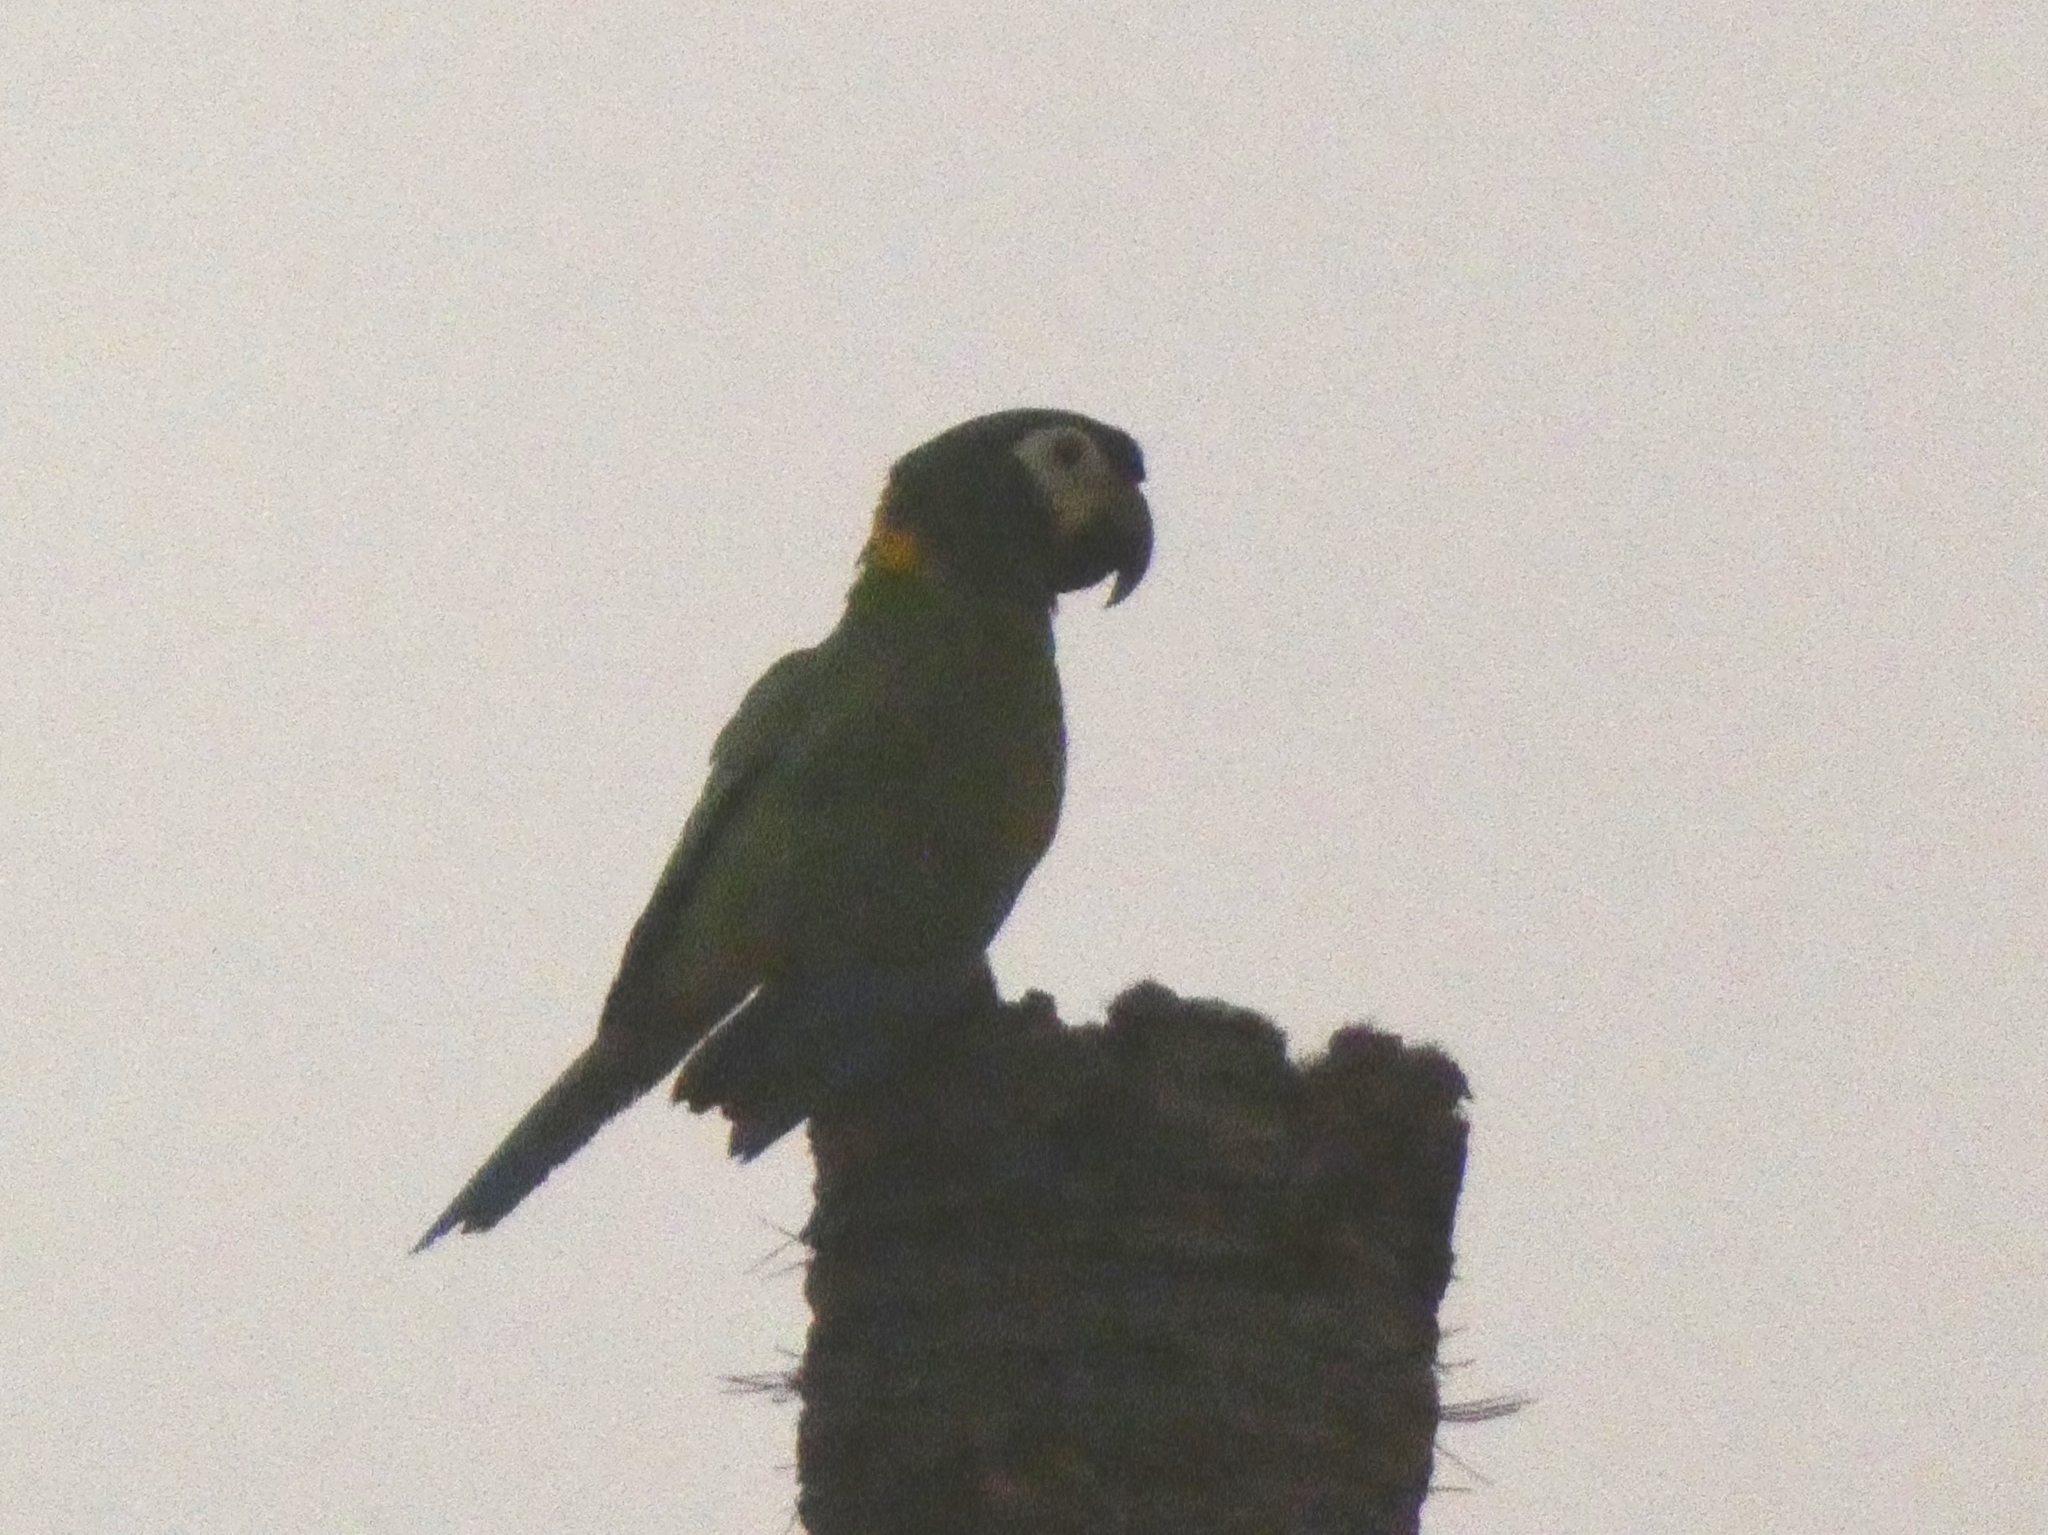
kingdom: Animalia
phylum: Chordata
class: Aves
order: Psittaciformes
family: Psittacidae
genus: Primolius
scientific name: Primolius auricollis
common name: Golden-collared macaw
